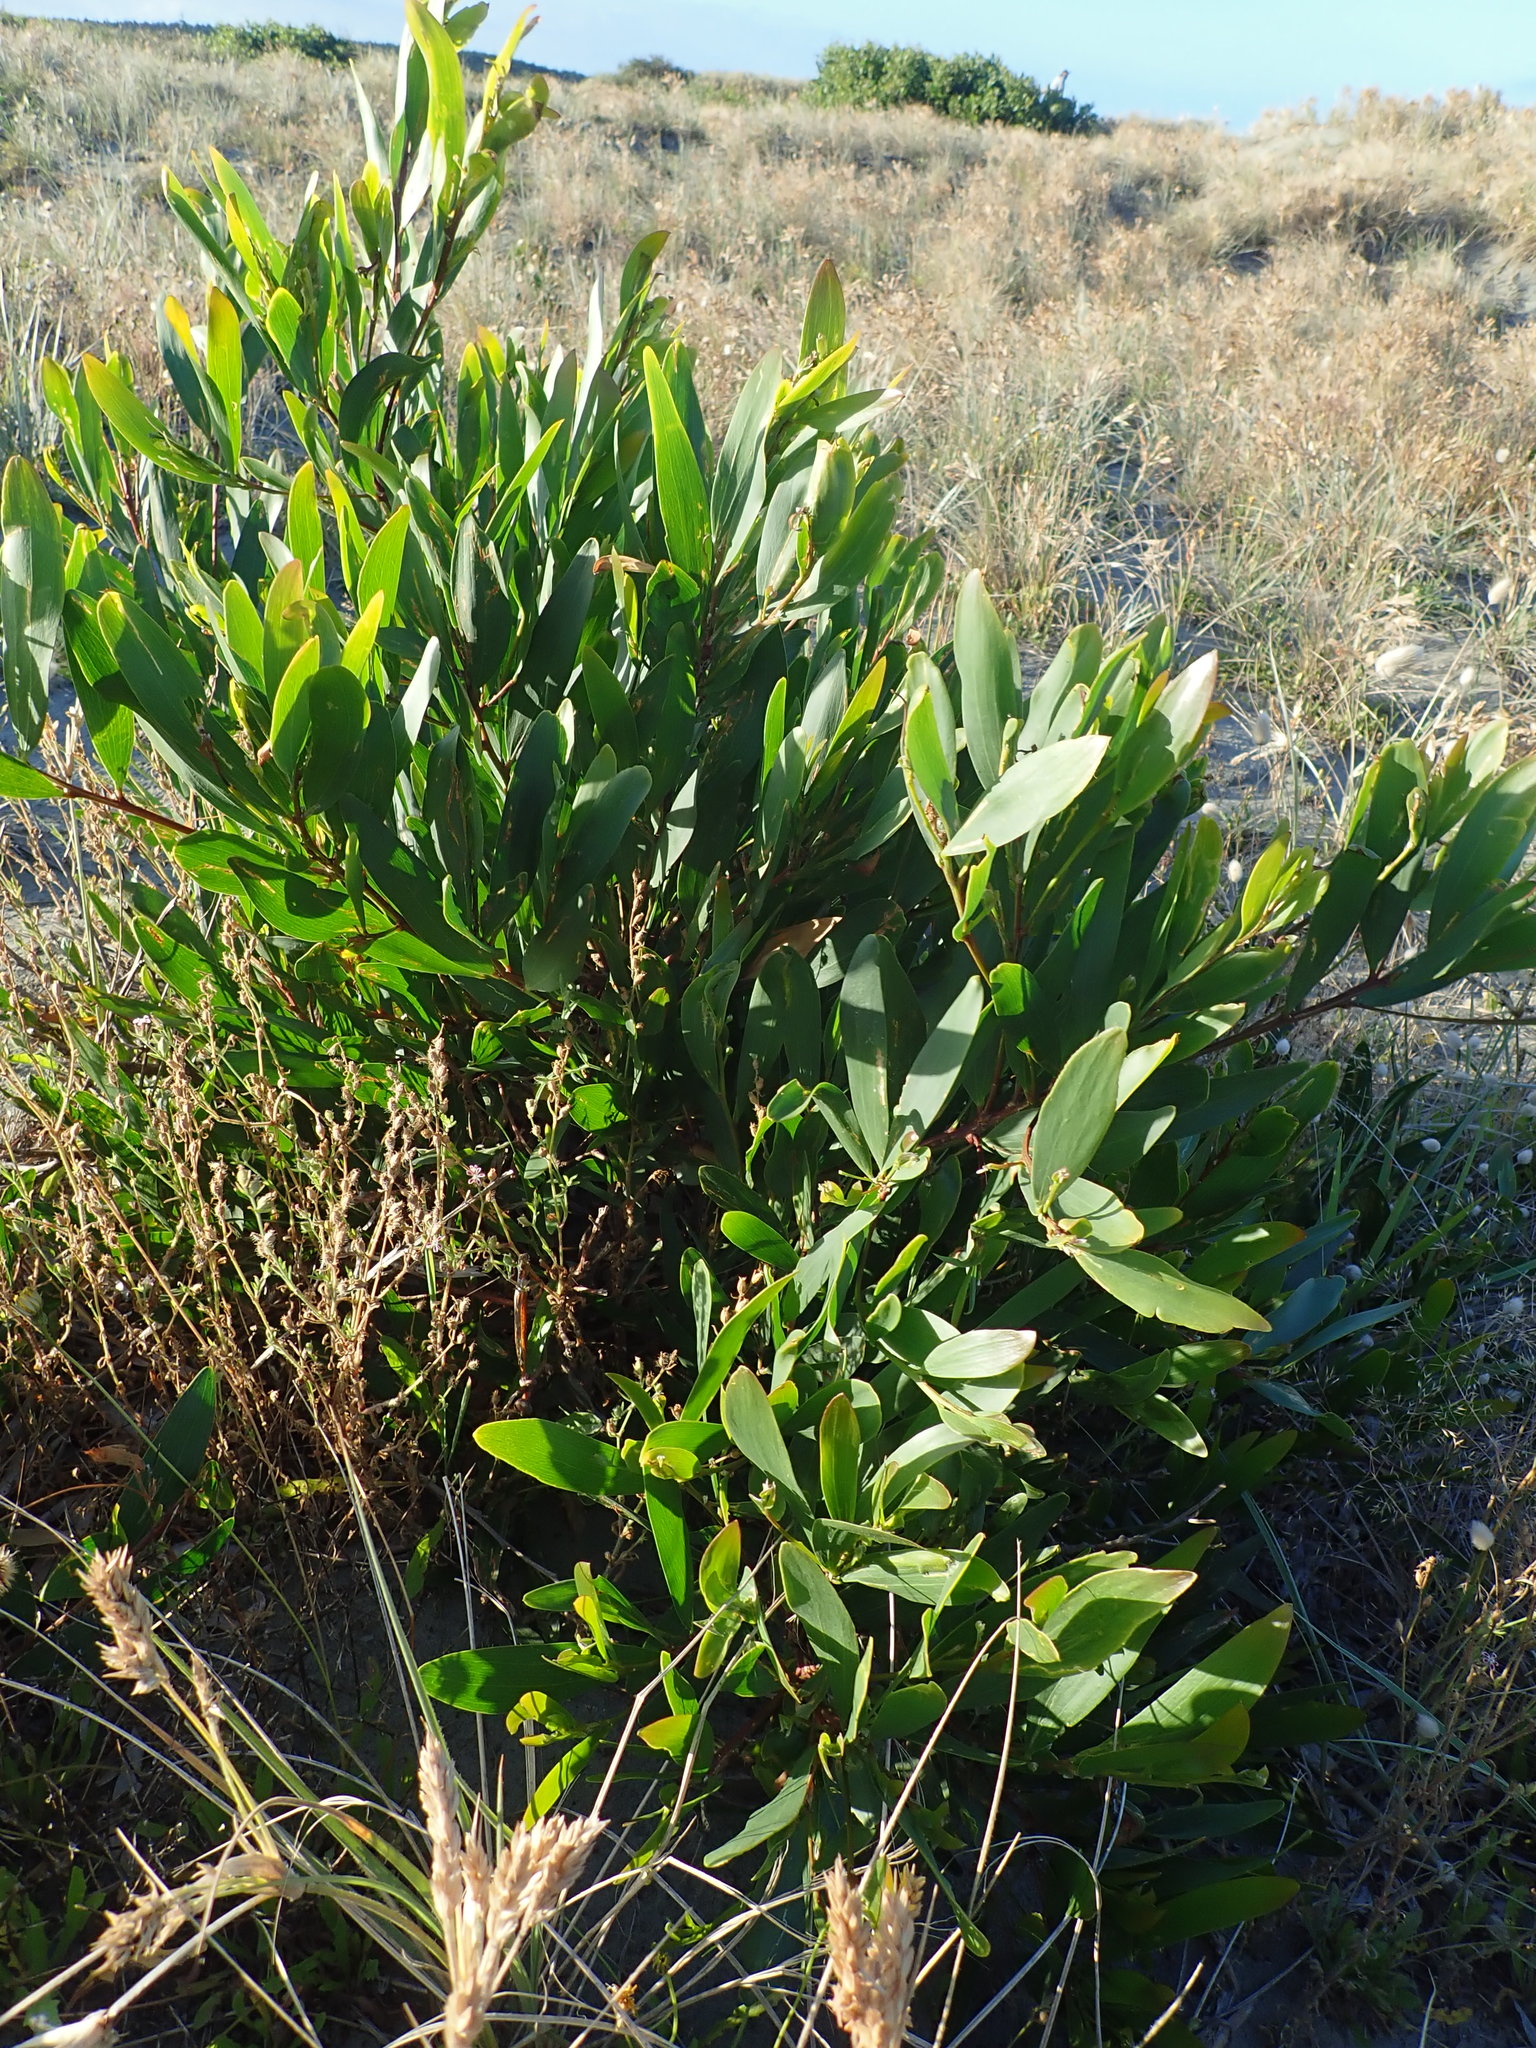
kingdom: Plantae
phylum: Tracheophyta
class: Magnoliopsida
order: Fabales
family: Fabaceae
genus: Acacia
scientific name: Acacia longifolia
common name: Sydney golden wattle
